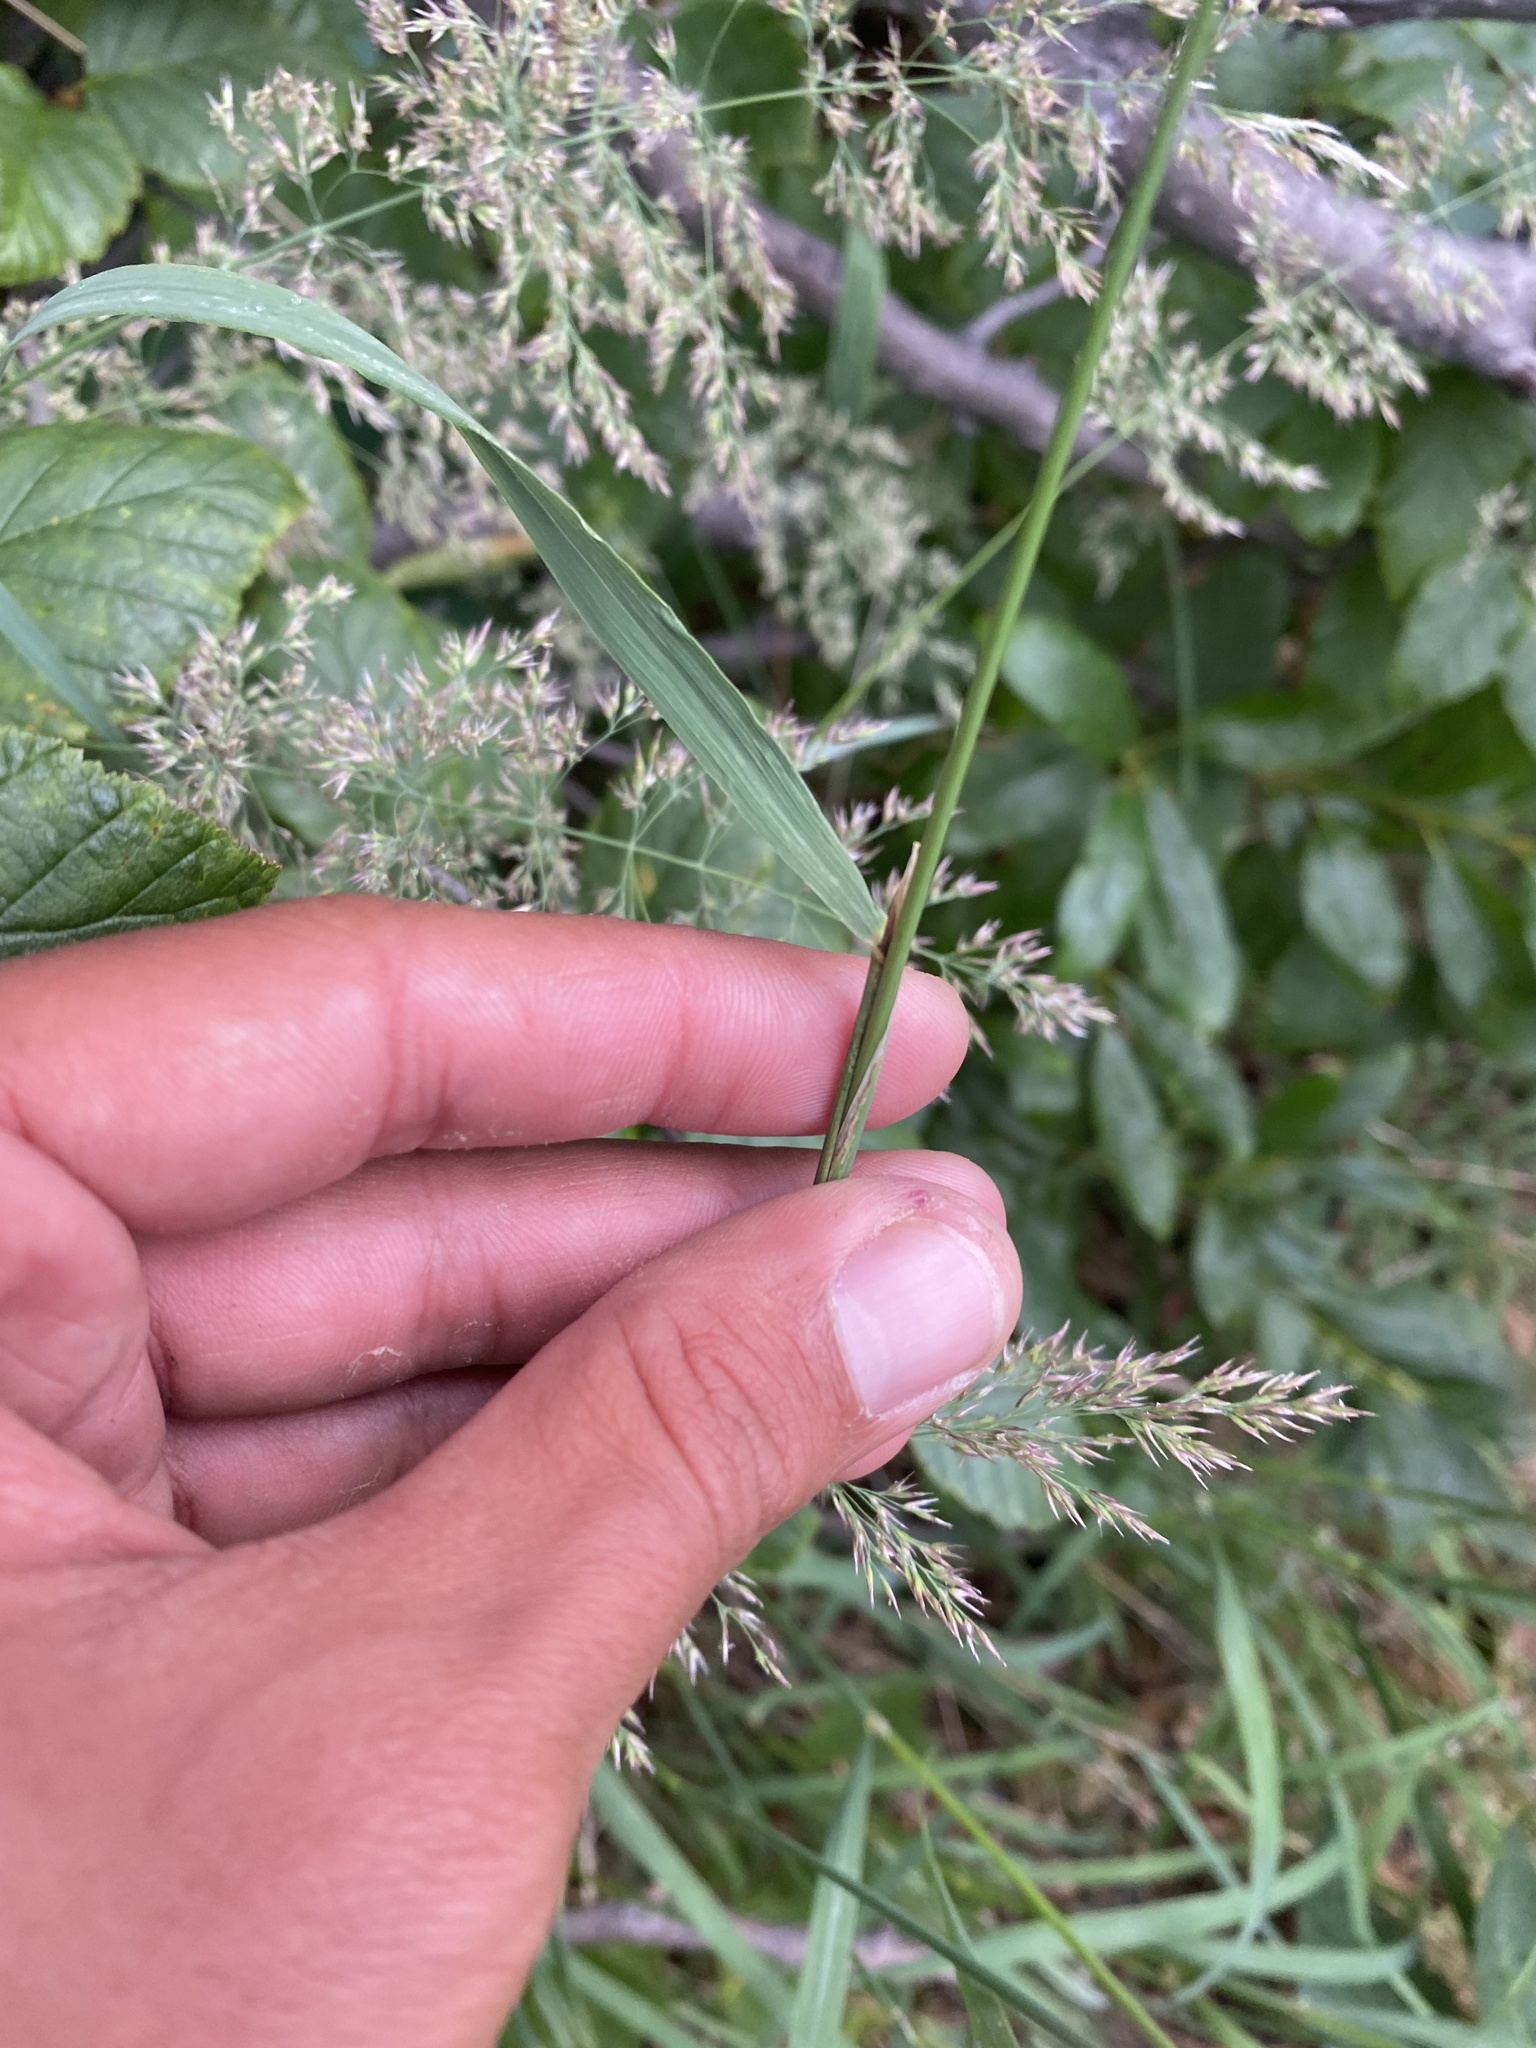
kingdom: Plantae
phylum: Tracheophyta
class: Liliopsida
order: Poales
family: Poaceae
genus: Calamagrostis
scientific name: Calamagrostis purpurea
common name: Scandinavian small-reed
